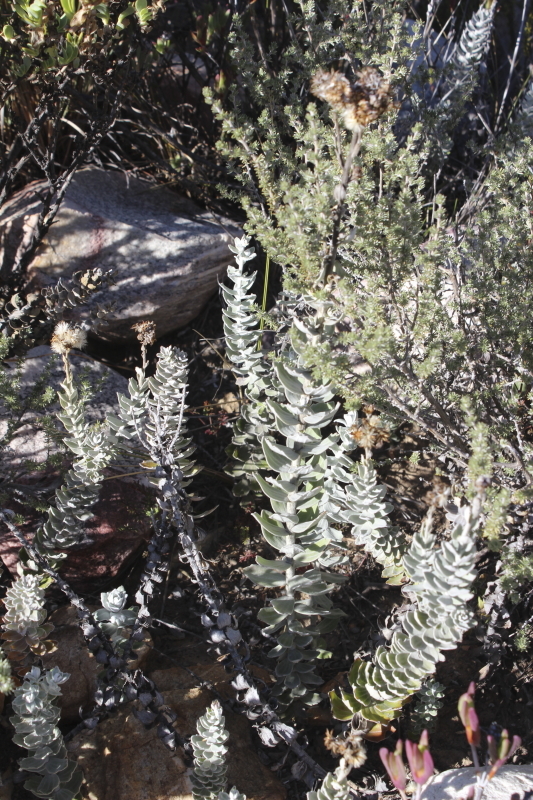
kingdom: Plantae
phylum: Tracheophyta
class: Magnoliopsida
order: Asterales
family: Asteraceae
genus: Senecio
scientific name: Senecio pauciflosculosus
